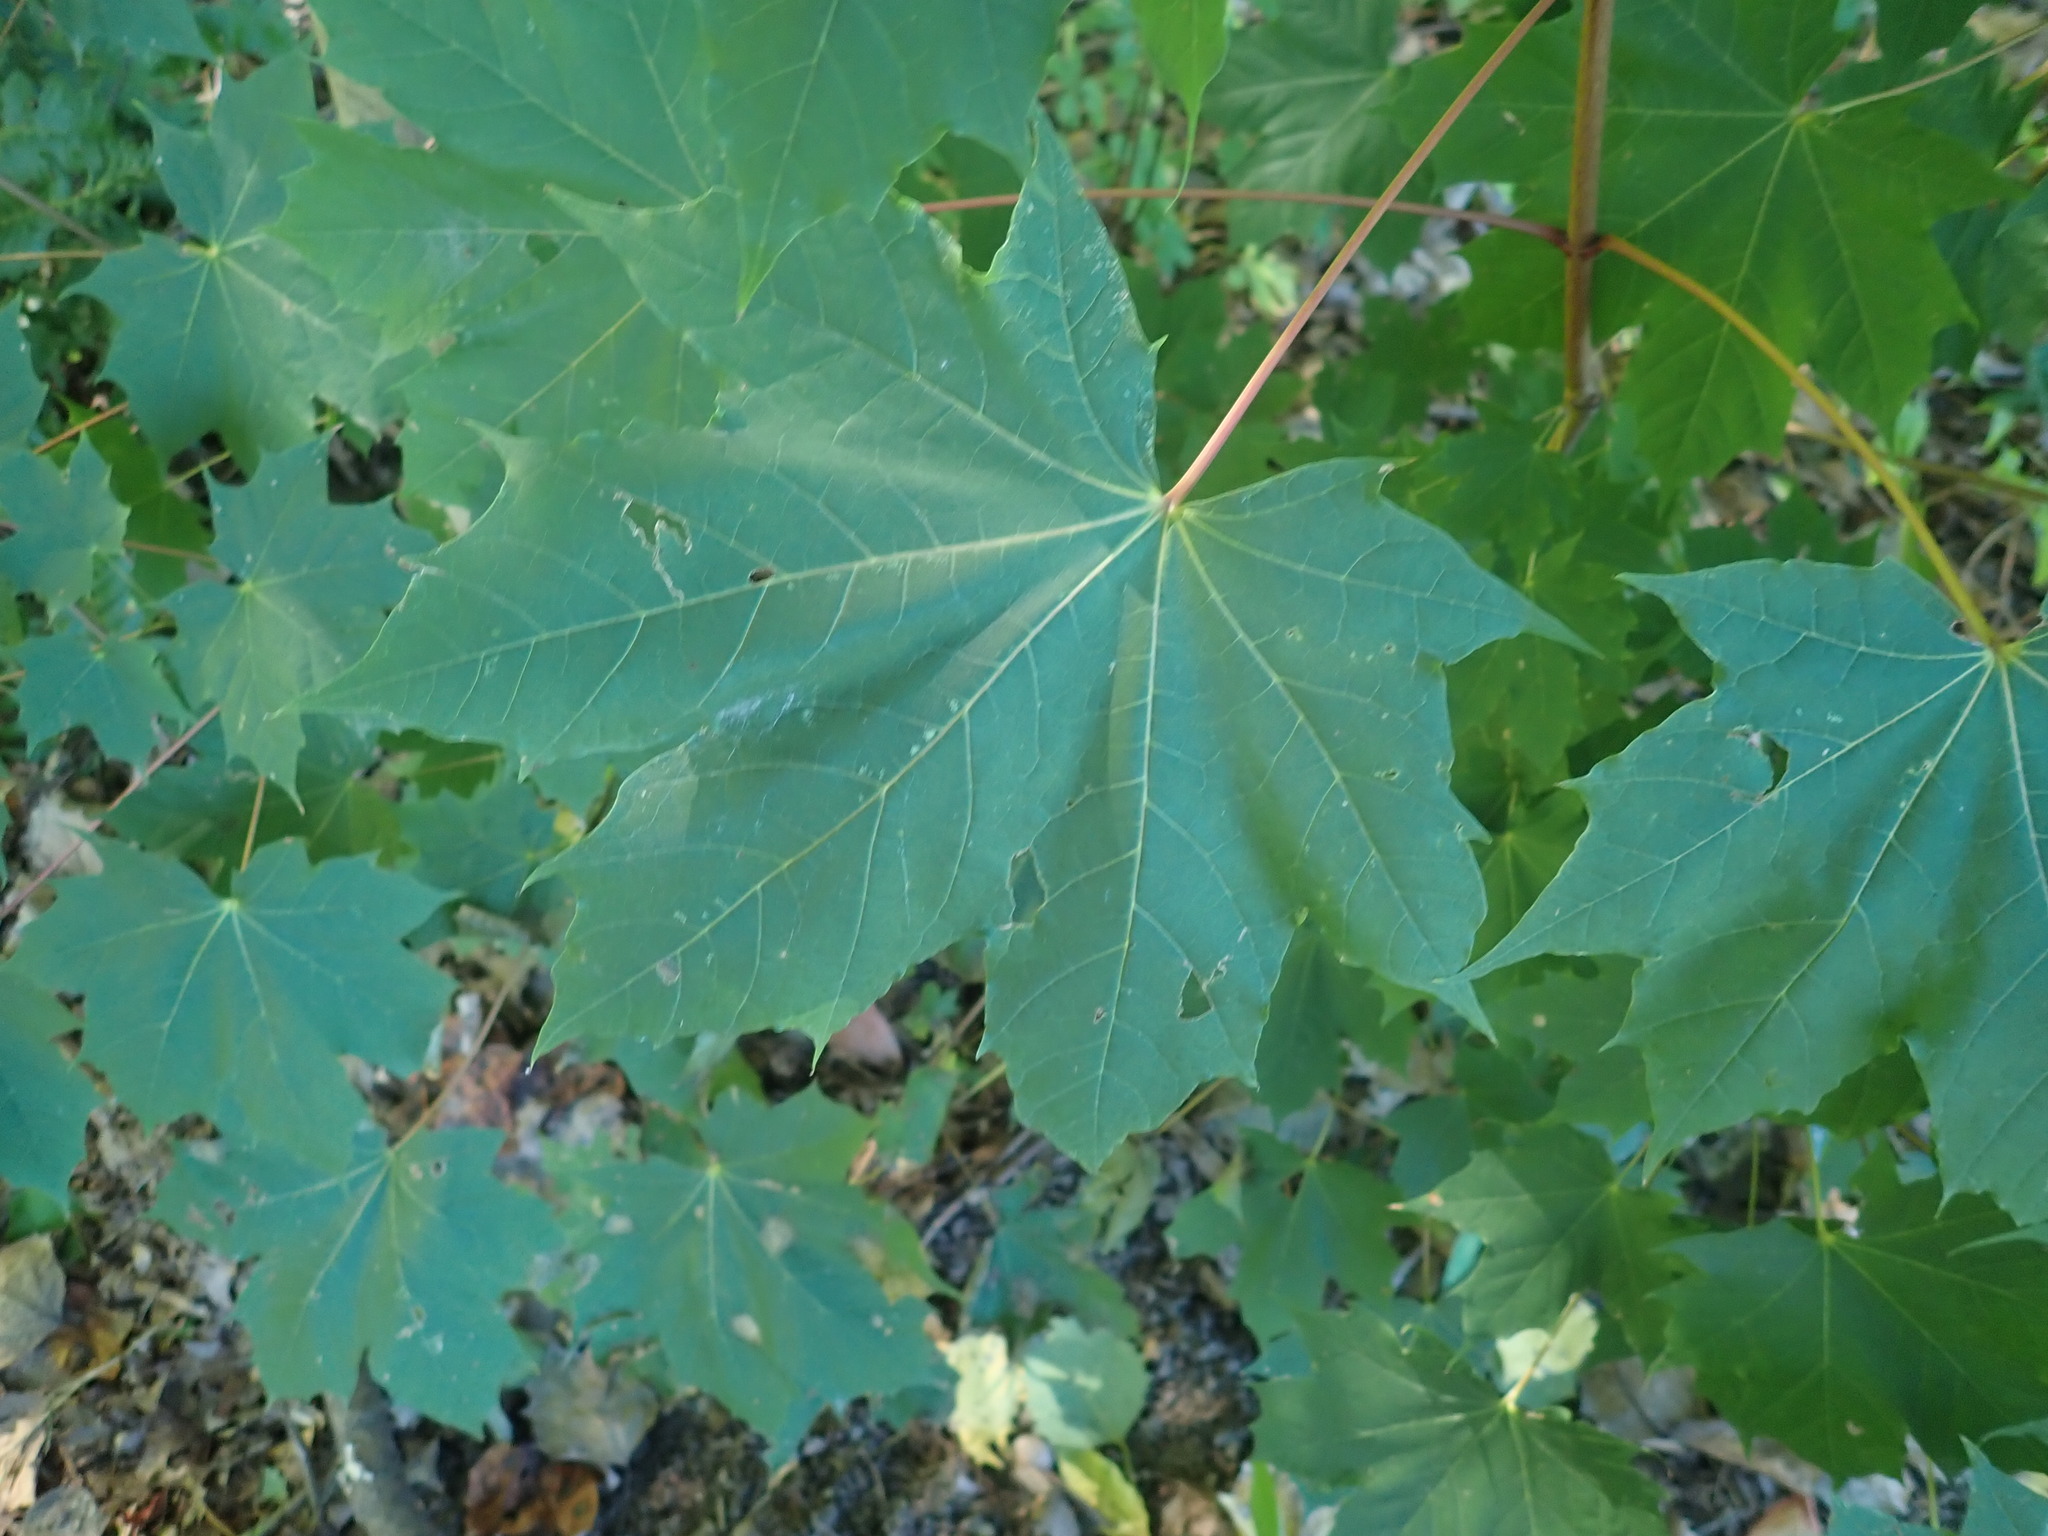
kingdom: Plantae
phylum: Tracheophyta
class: Magnoliopsida
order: Sapindales
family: Sapindaceae
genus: Acer
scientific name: Acer platanoides
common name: Norway maple
